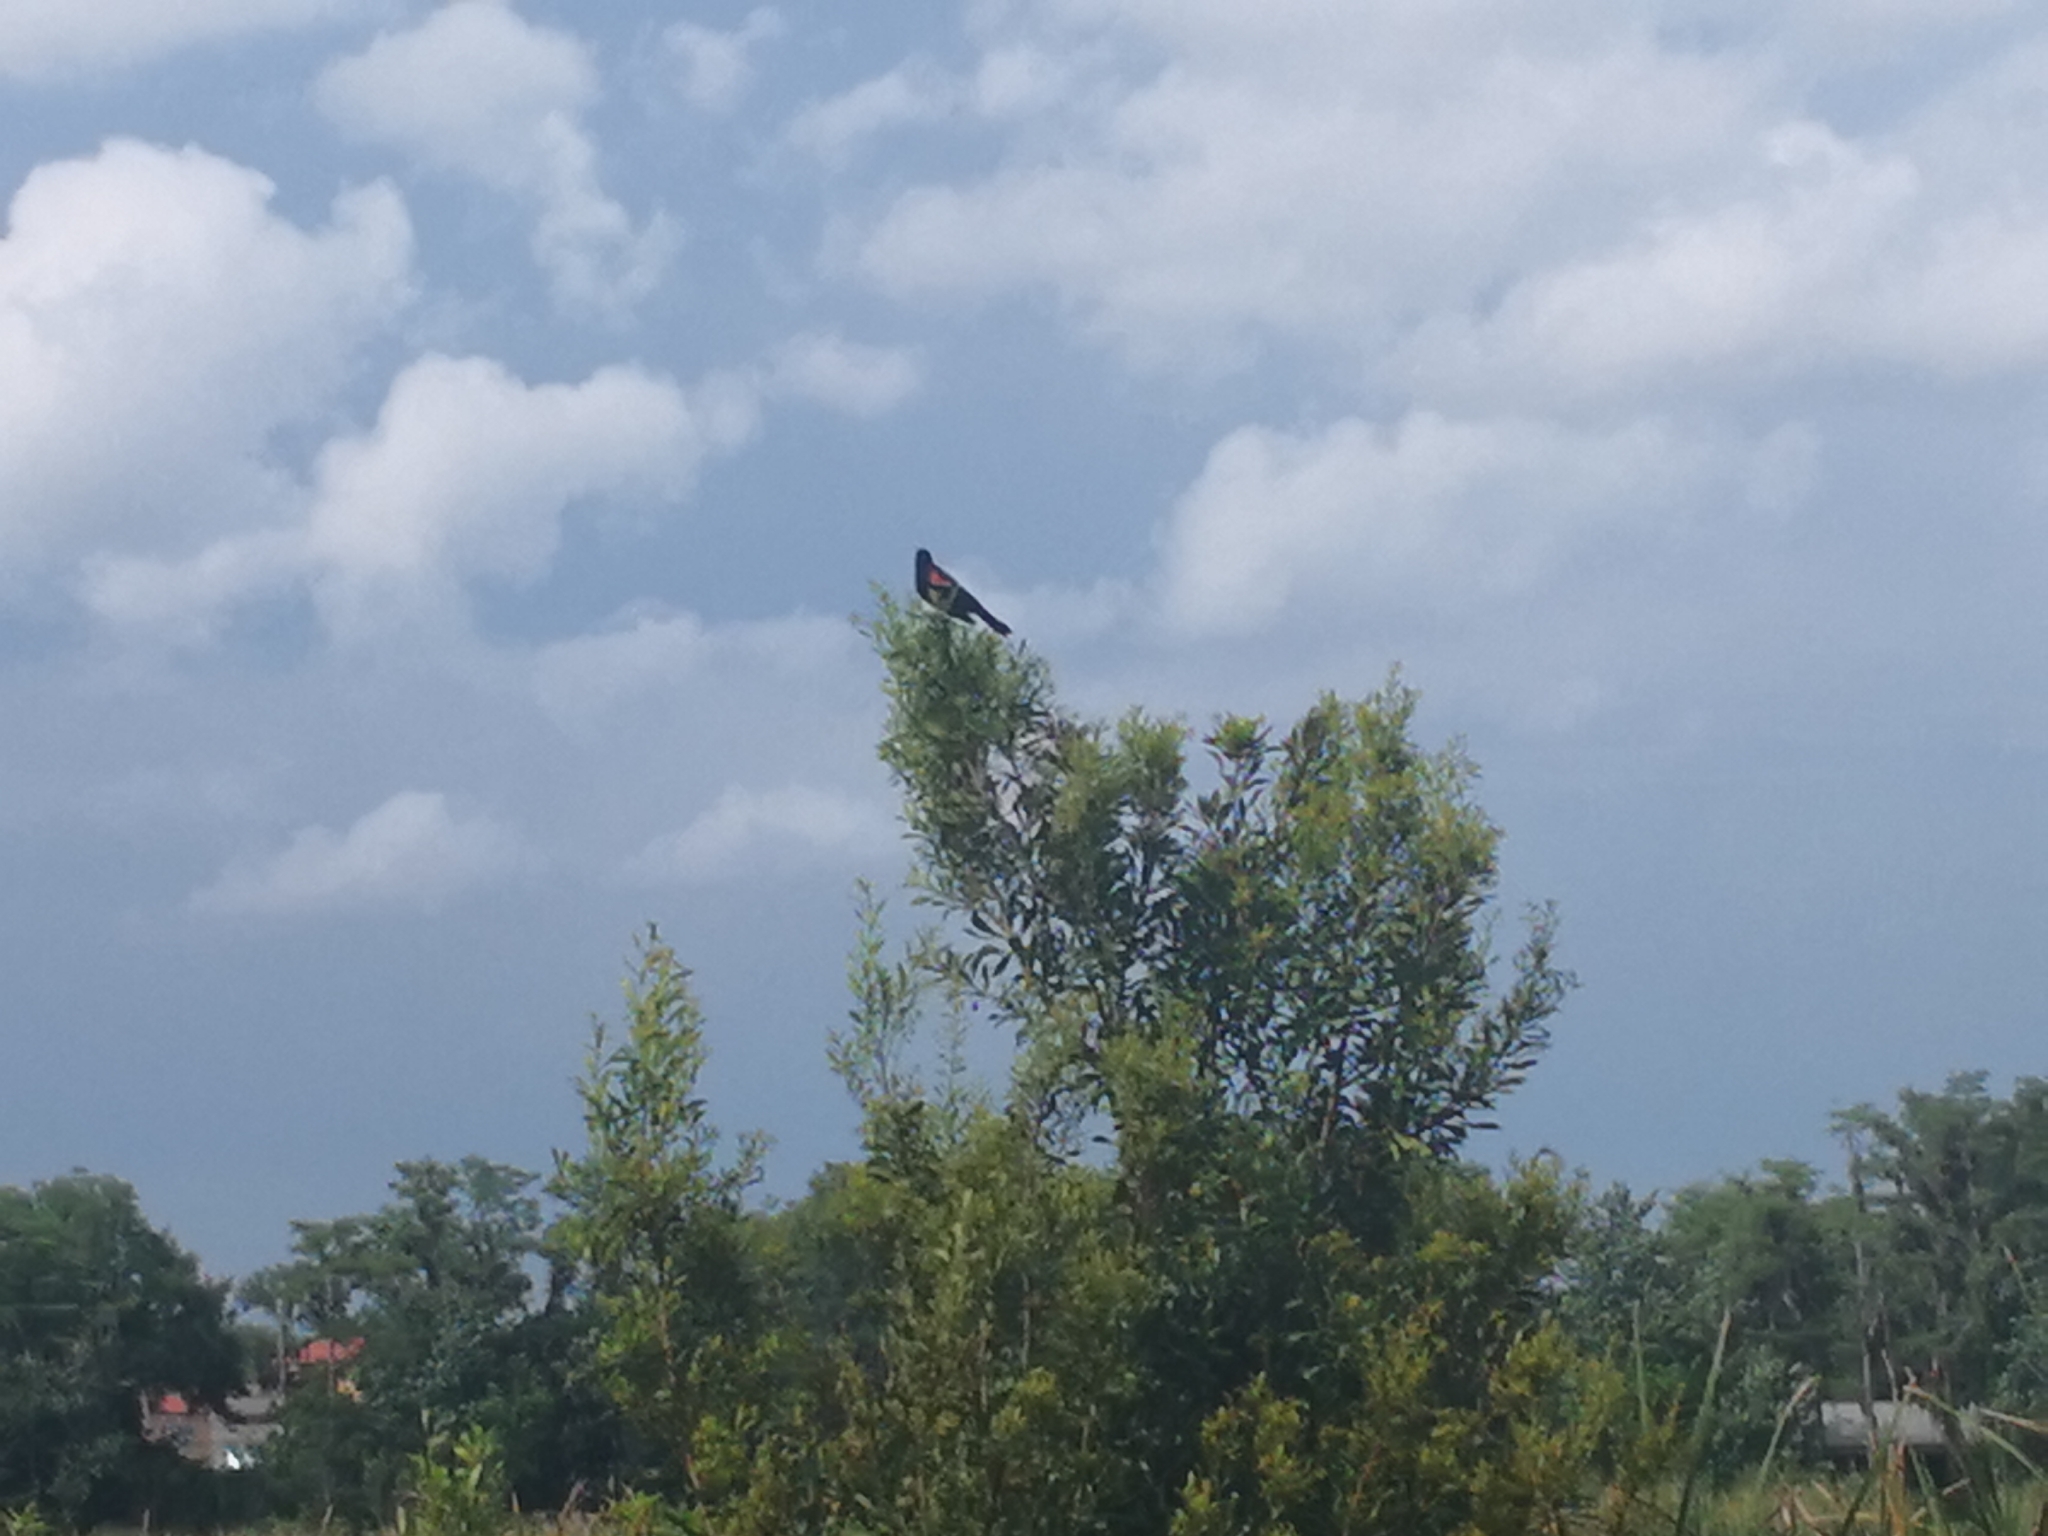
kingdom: Animalia
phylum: Chordata
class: Aves
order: Passeriformes
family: Icteridae
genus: Agelaius
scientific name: Agelaius phoeniceus
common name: Red-winged blackbird
